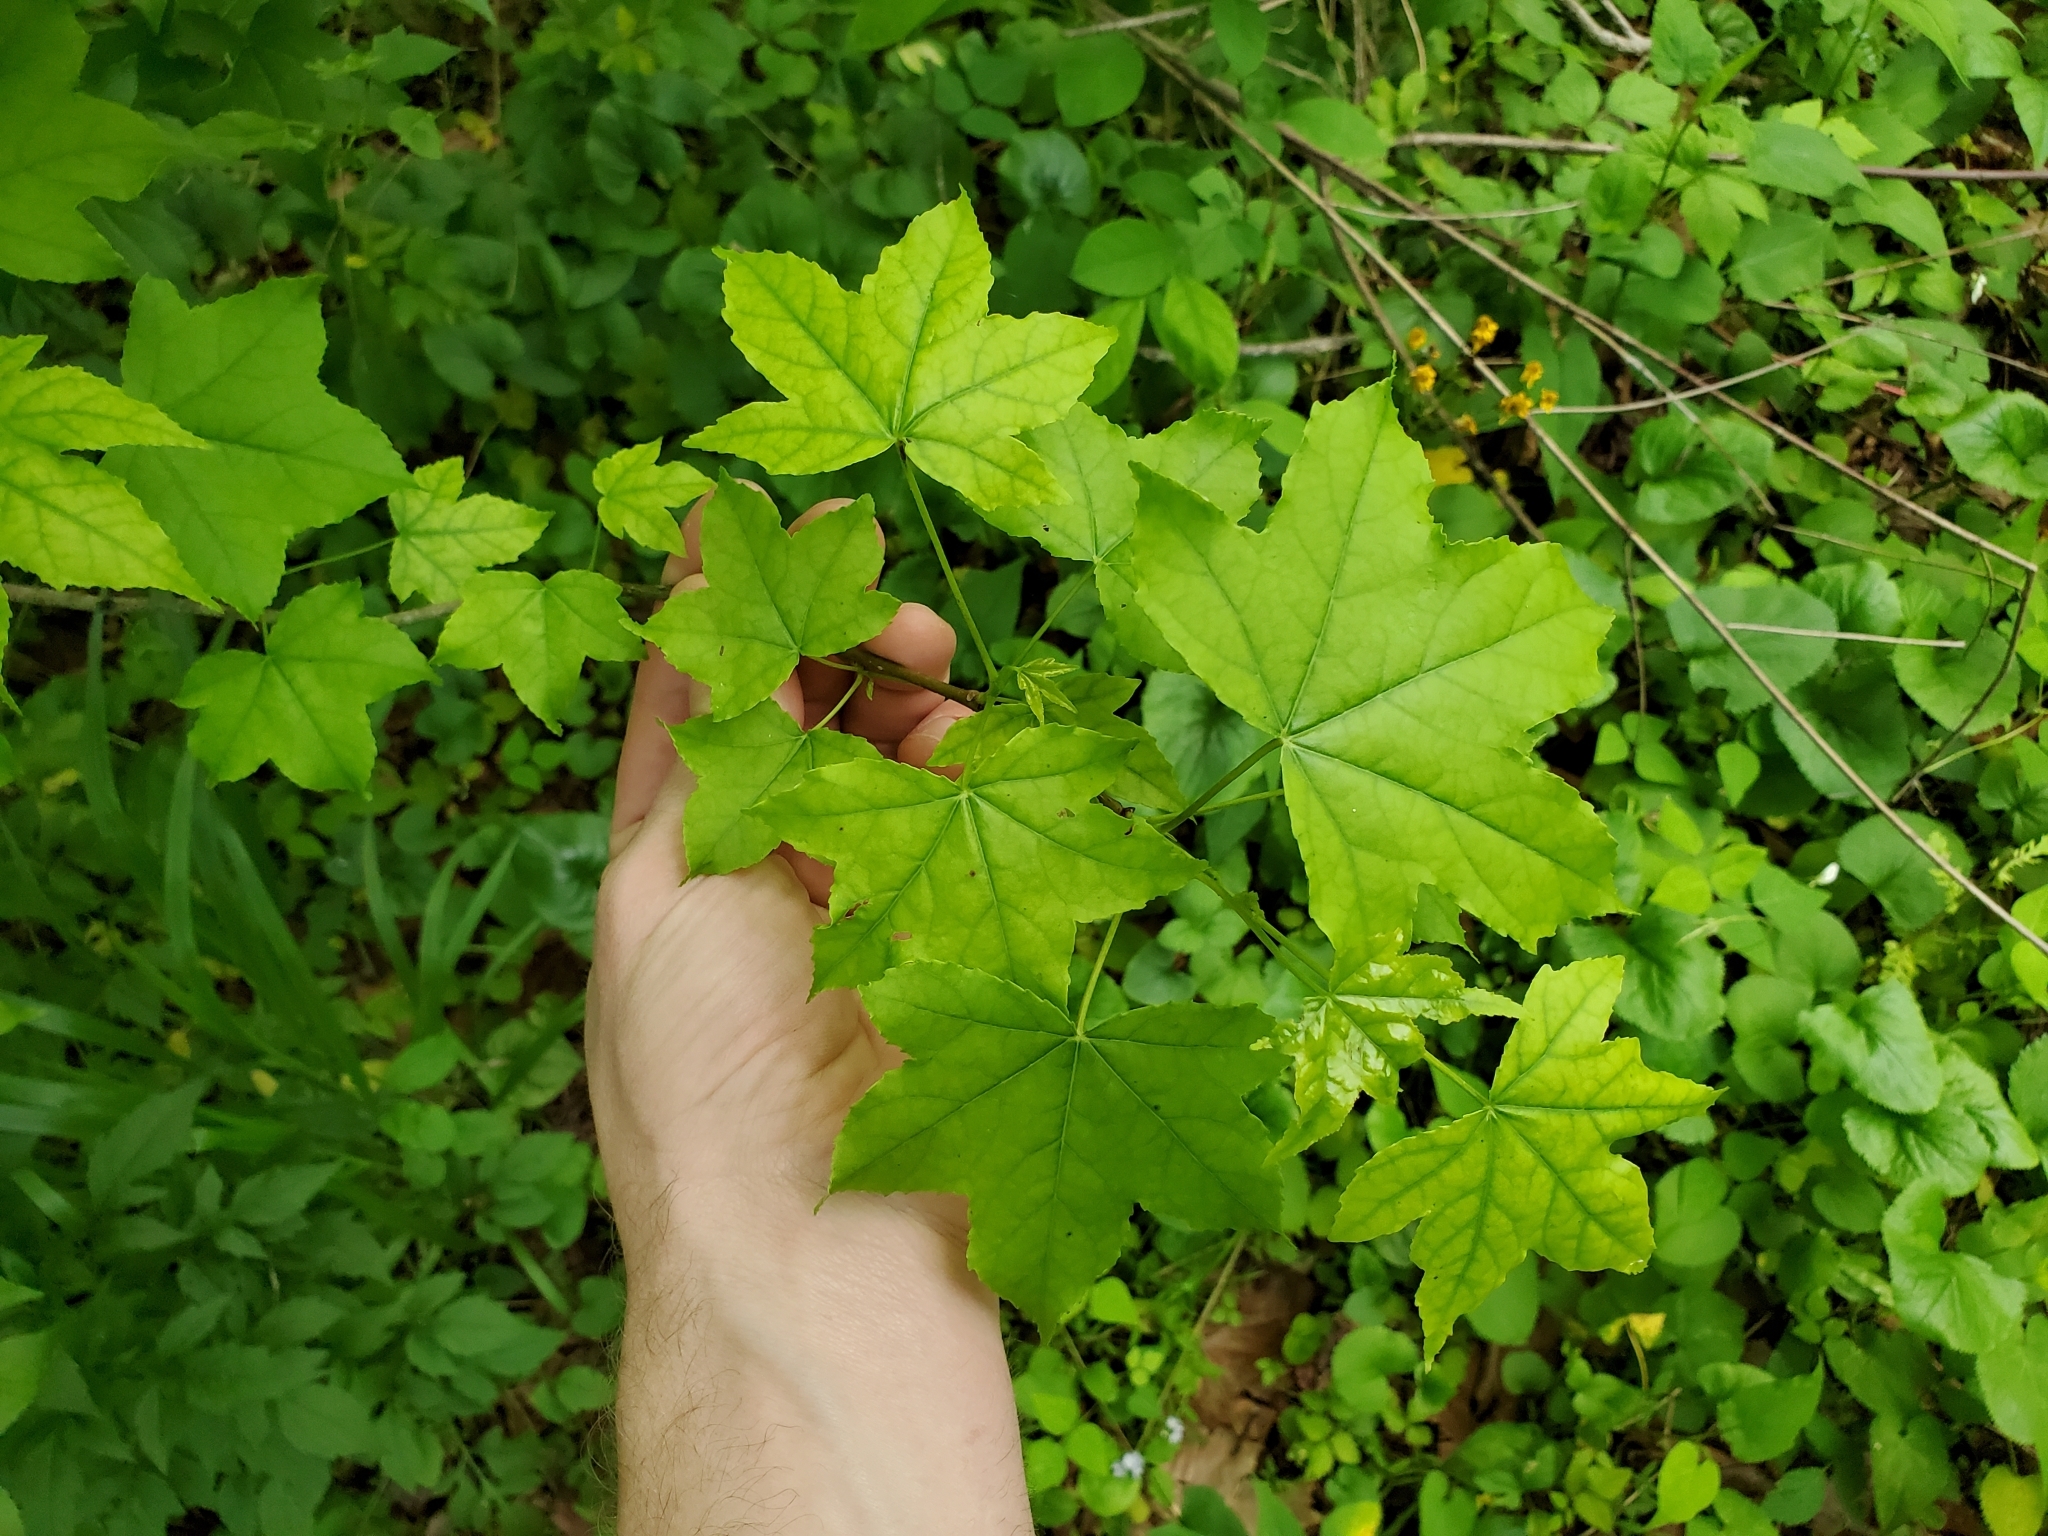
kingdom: Plantae
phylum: Tracheophyta
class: Magnoliopsida
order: Saxifragales
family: Altingiaceae
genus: Liquidambar
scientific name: Liquidambar styraciflua
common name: Sweet gum
